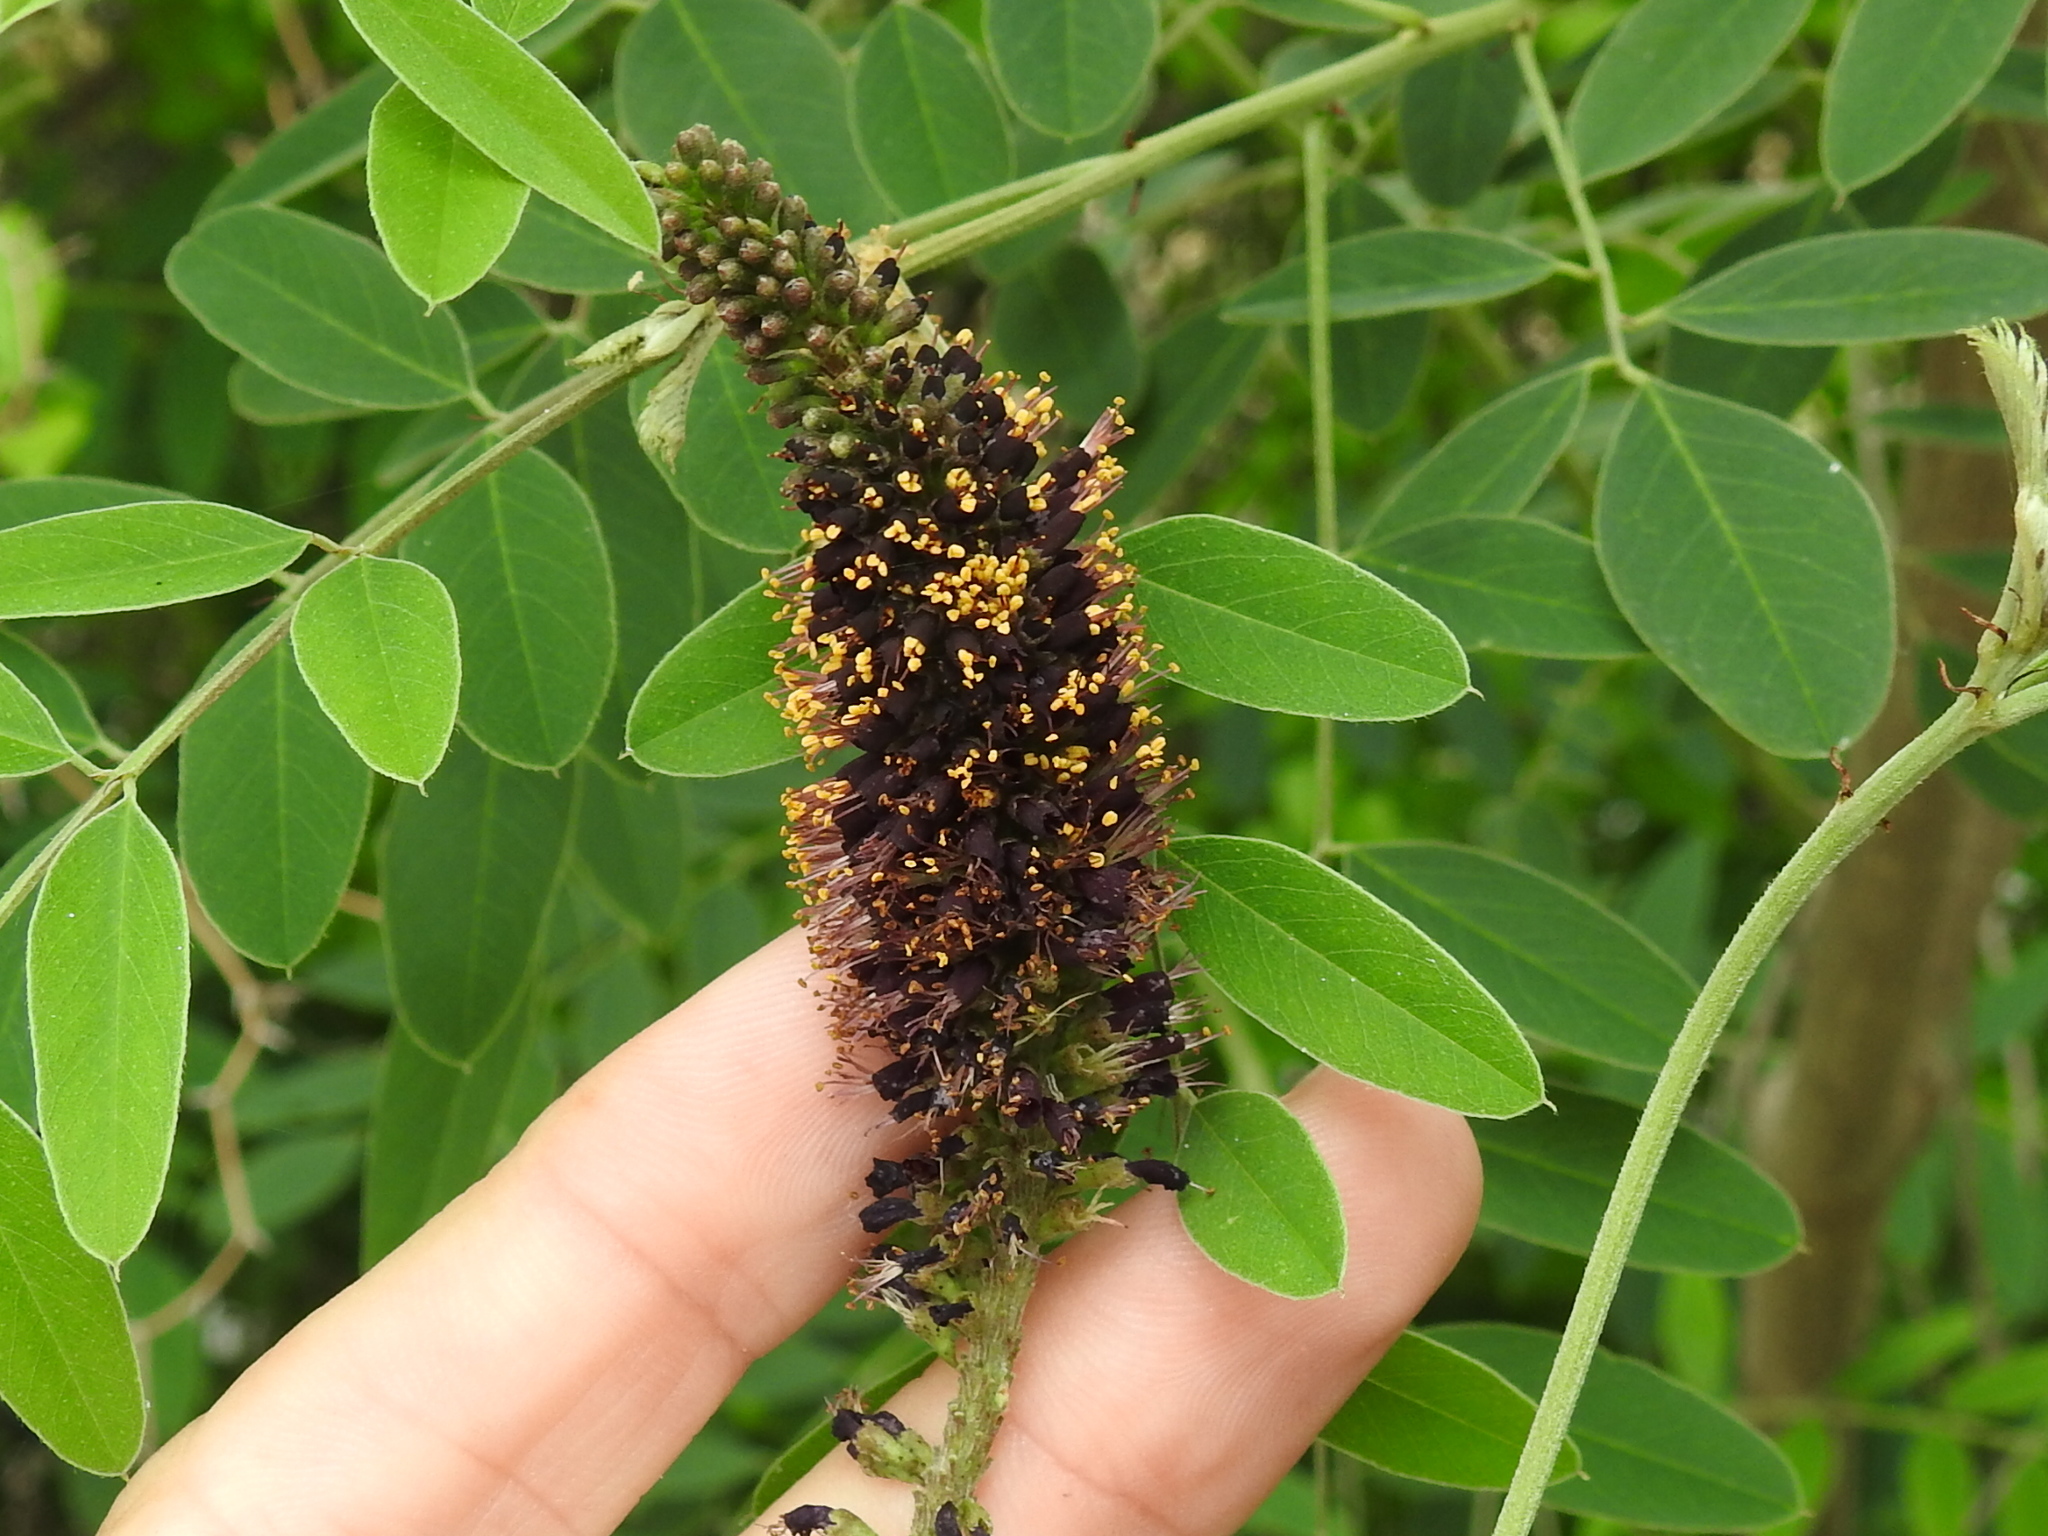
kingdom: Plantae
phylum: Tracheophyta
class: Magnoliopsida
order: Fabales
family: Fabaceae
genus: Amorpha
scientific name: Amorpha fruticosa
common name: False indigo
